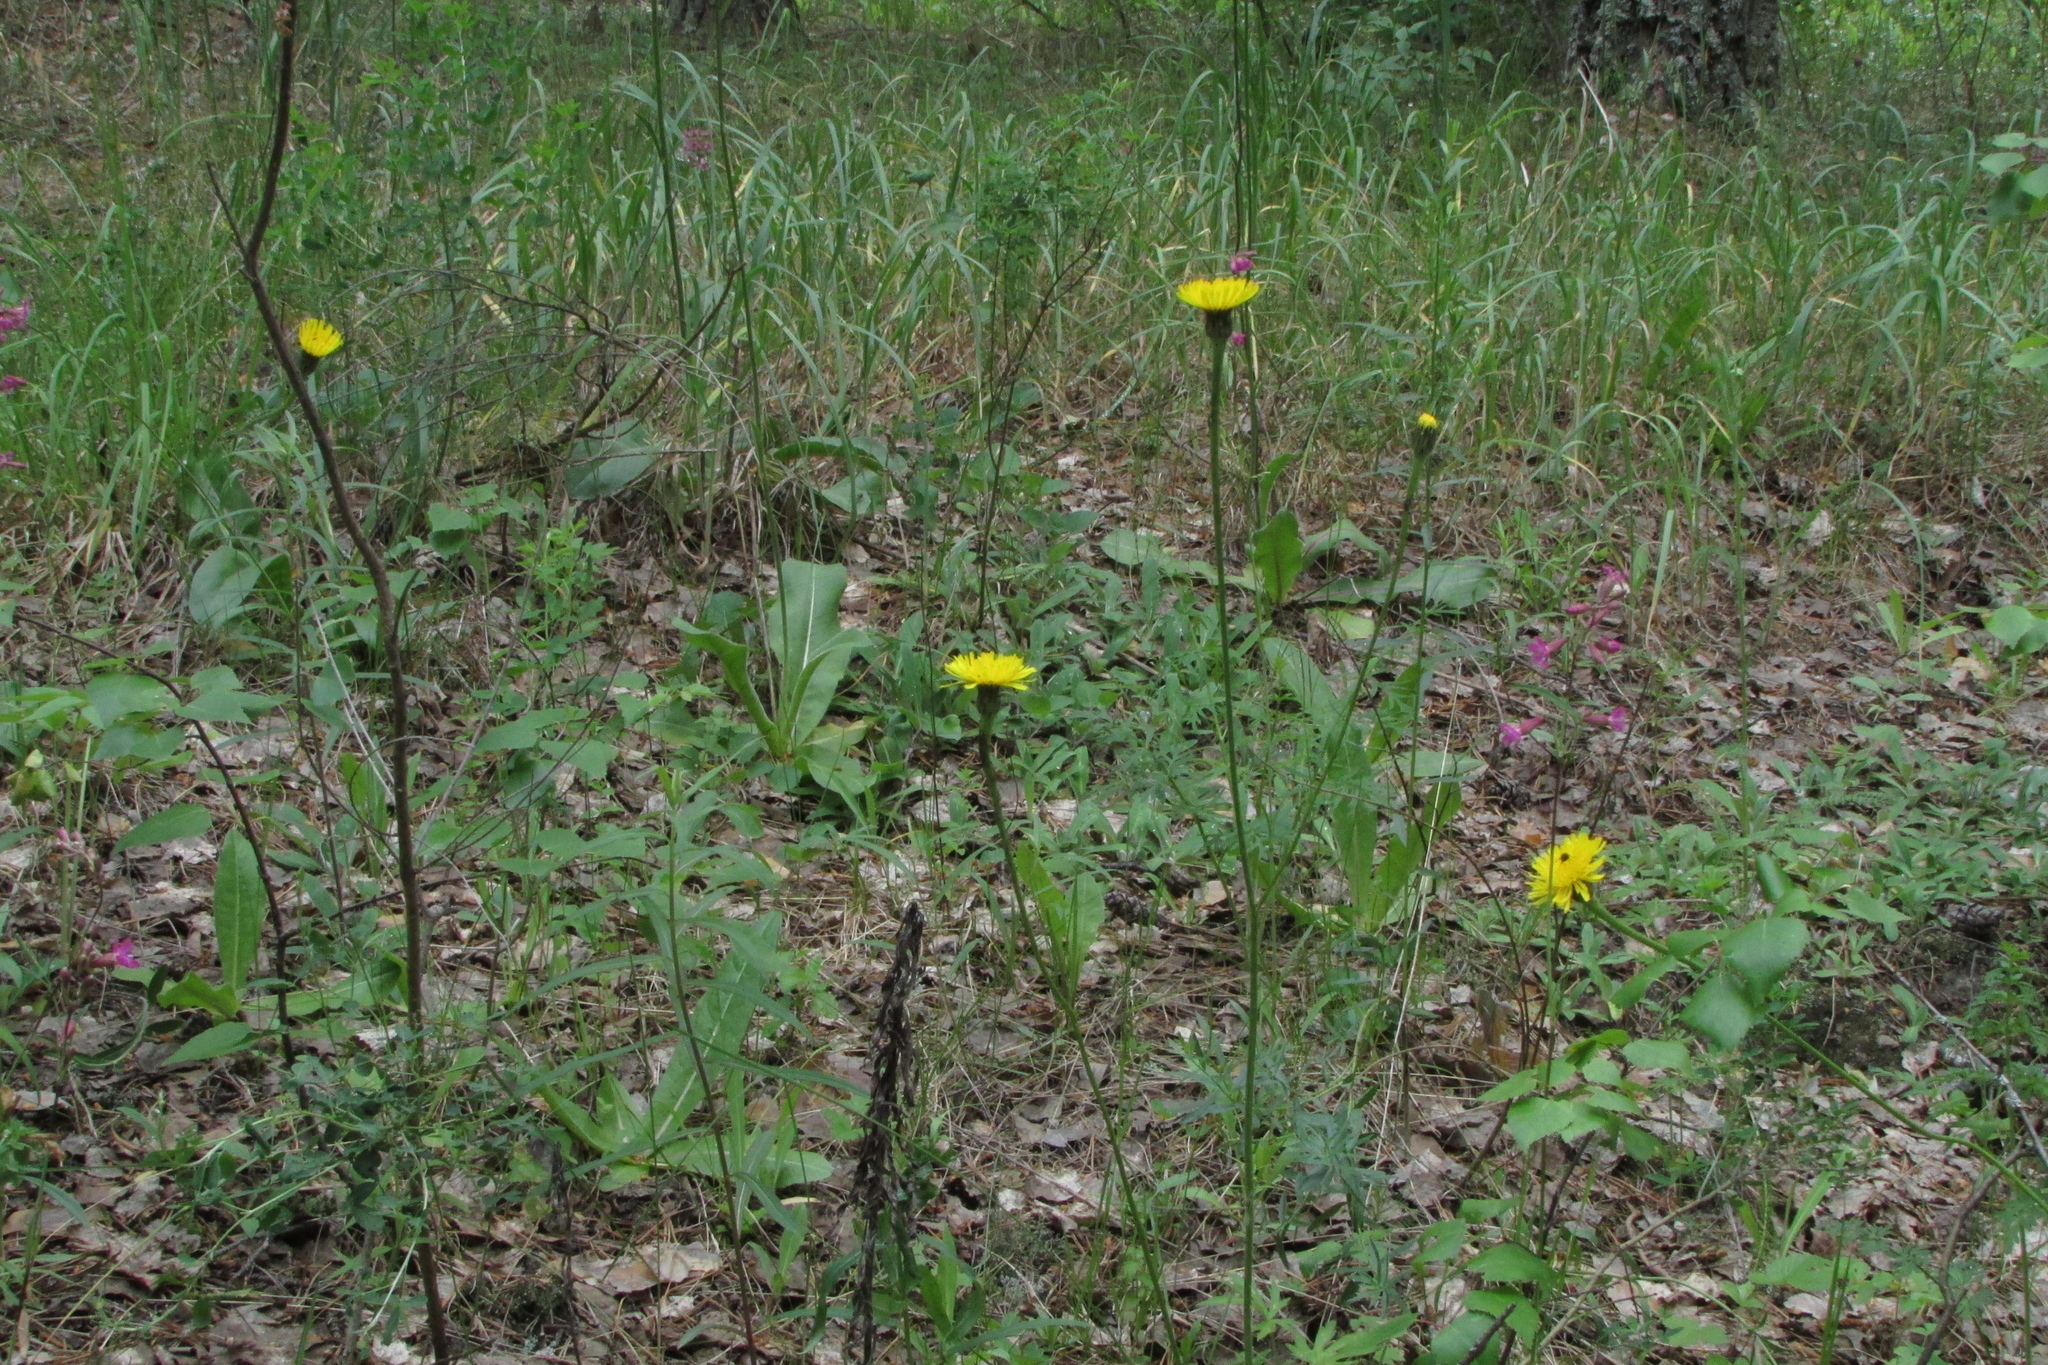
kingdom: Plantae
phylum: Tracheophyta
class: Magnoliopsida
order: Asterales
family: Asteraceae
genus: Trommsdorffia
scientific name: Trommsdorffia maculata
